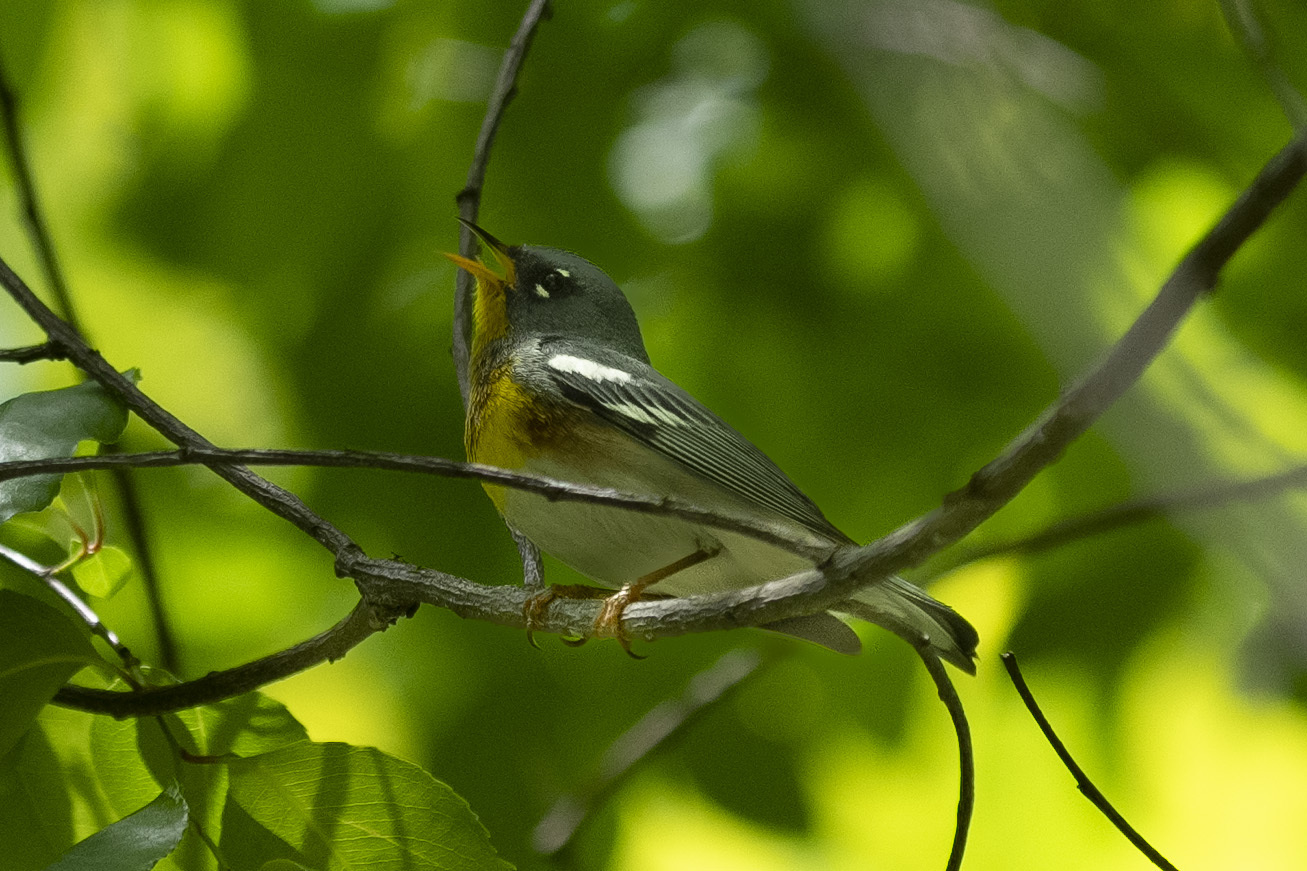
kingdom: Animalia
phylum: Chordata
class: Aves
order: Passeriformes
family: Parulidae
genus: Setophaga
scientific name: Setophaga americana
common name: Northern parula
